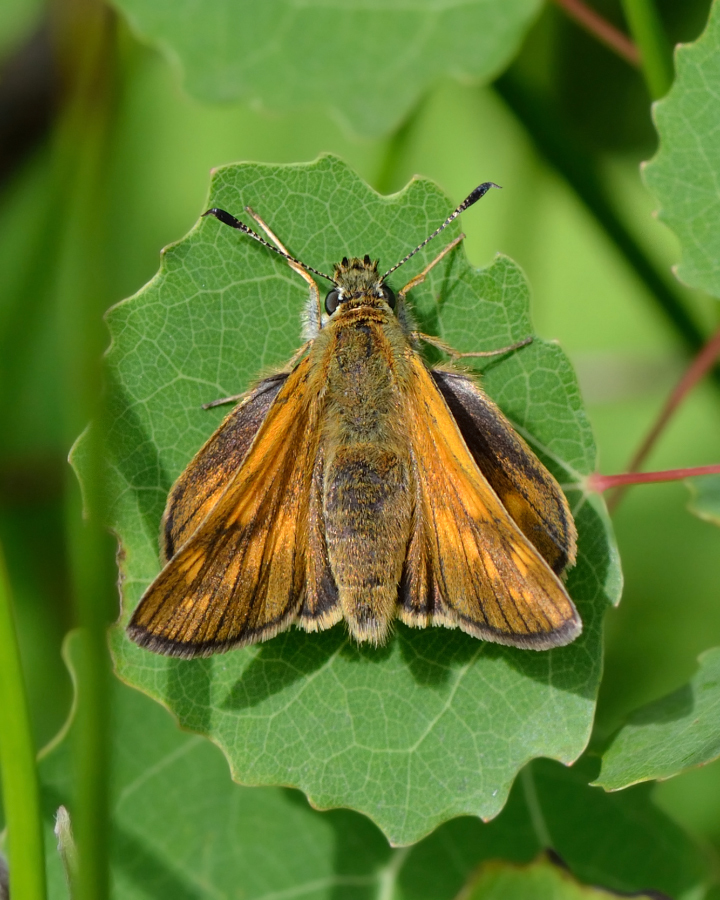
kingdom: Animalia
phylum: Arthropoda
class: Insecta
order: Lepidoptera
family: Hesperiidae
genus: Ochlodes
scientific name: Ochlodes venata
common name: Large skipper
